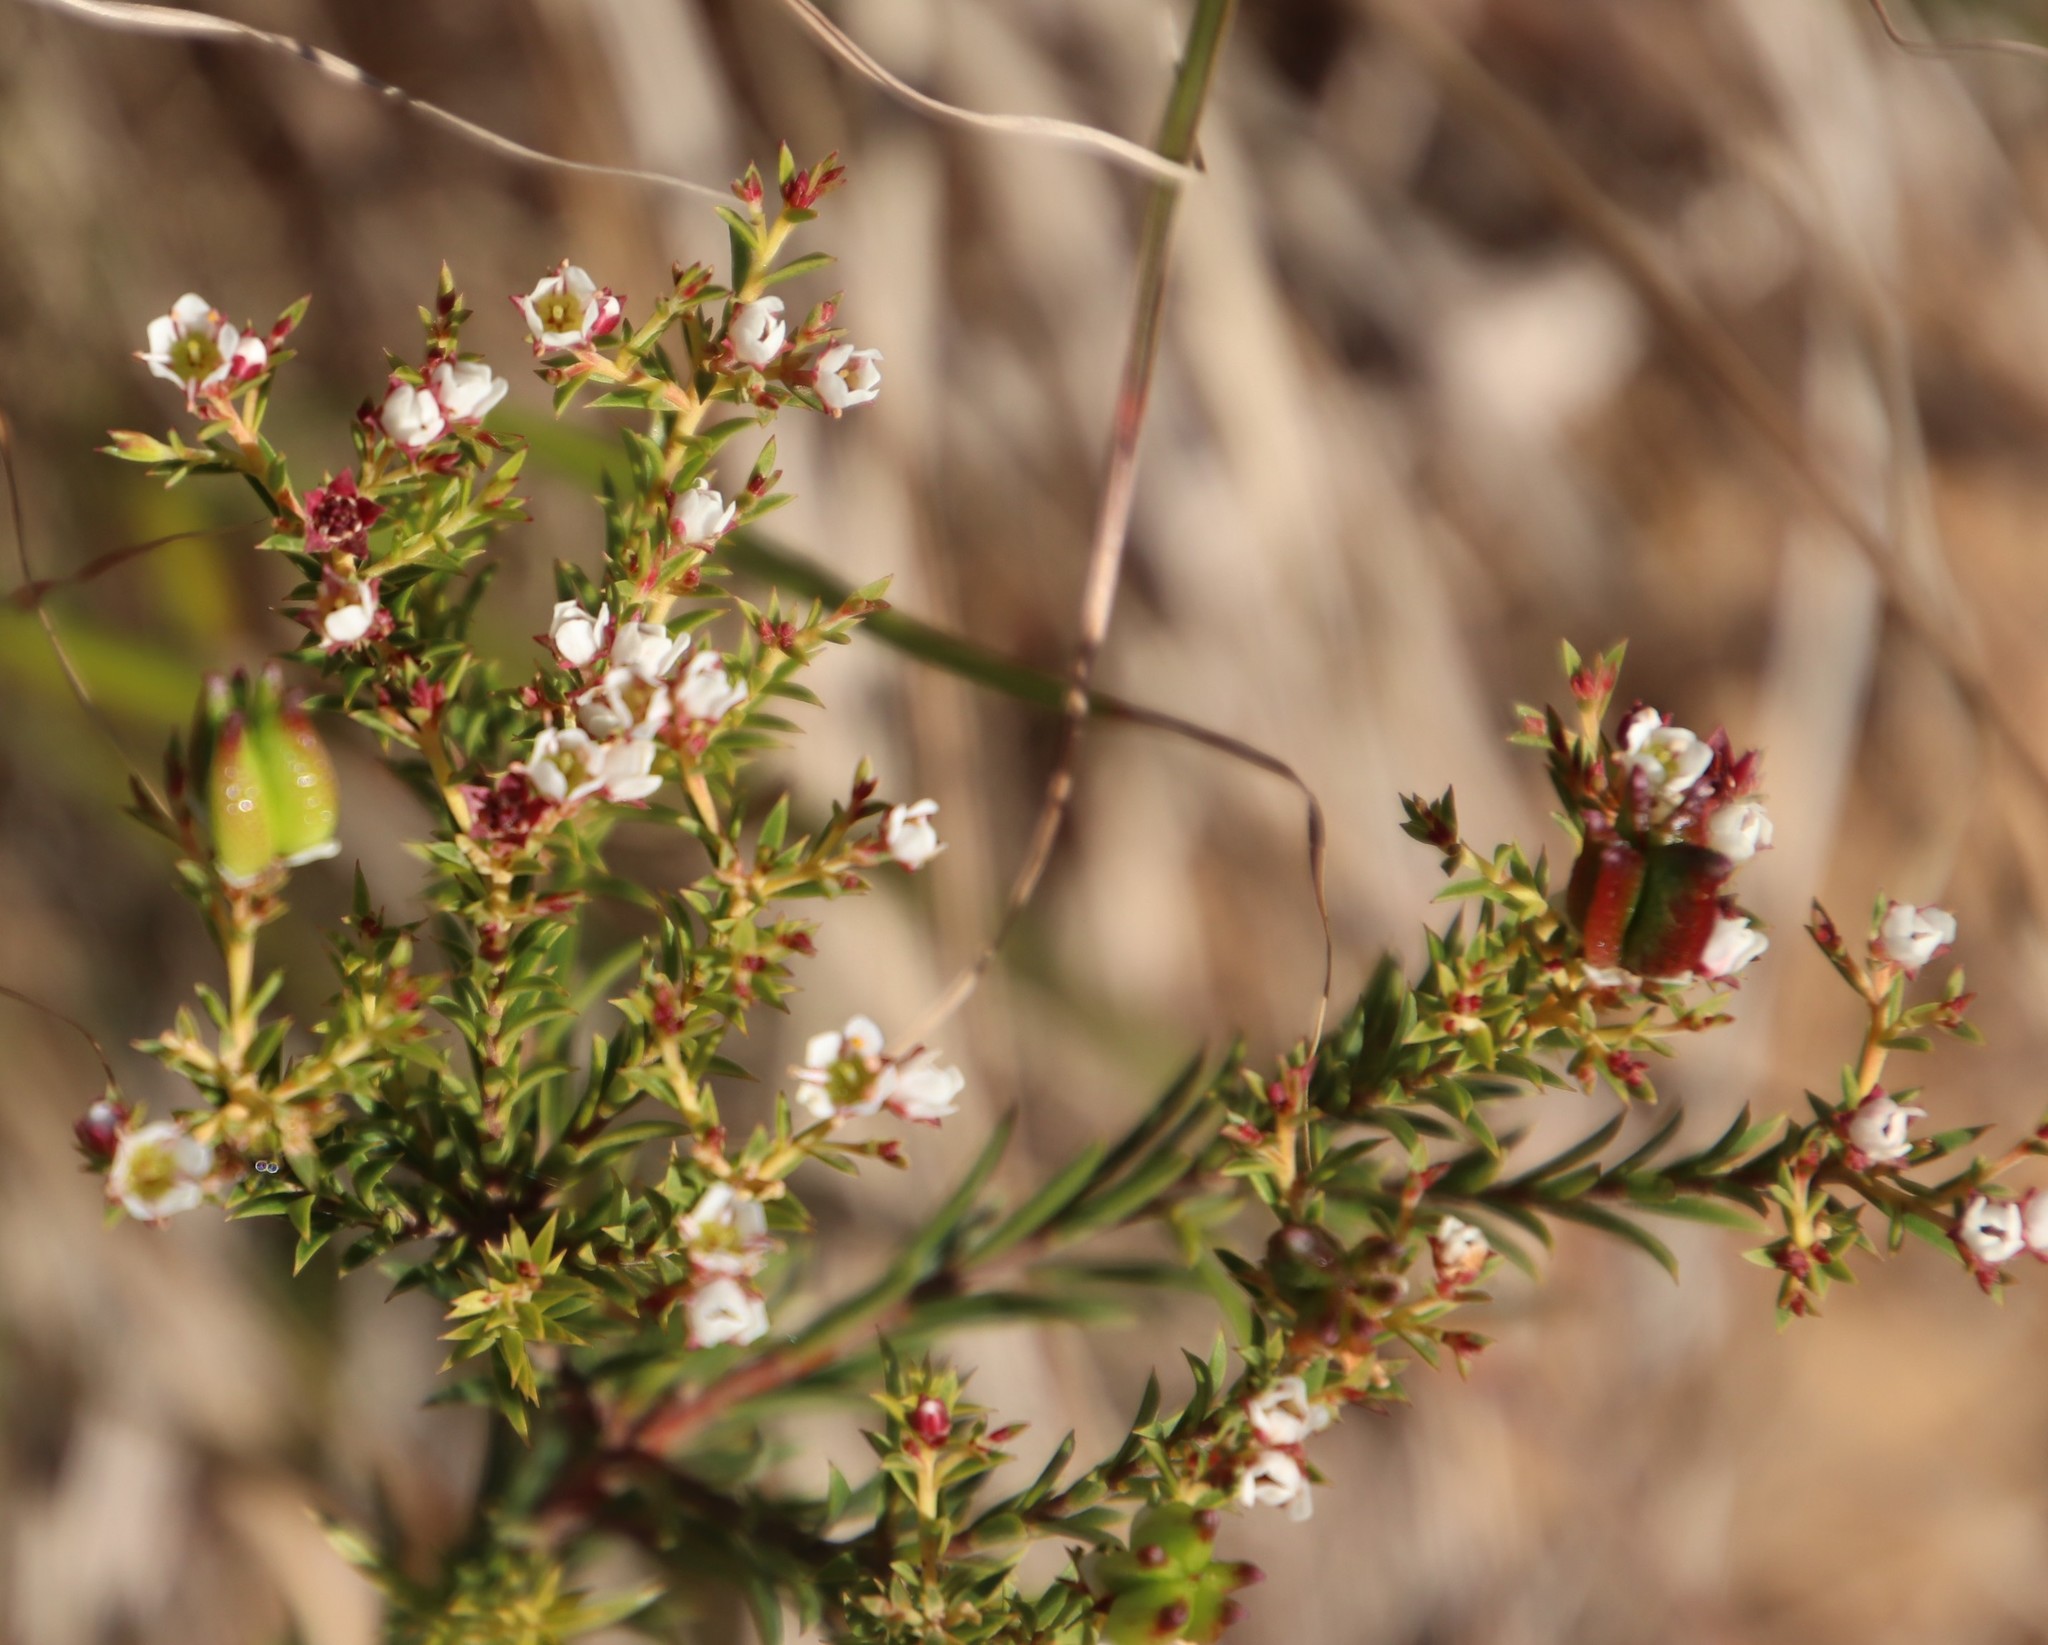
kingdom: Plantae
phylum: Tracheophyta
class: Magnoliopsida
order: Sapindales
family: Rutaceae
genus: Diosma
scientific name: Diosma hirsuta
